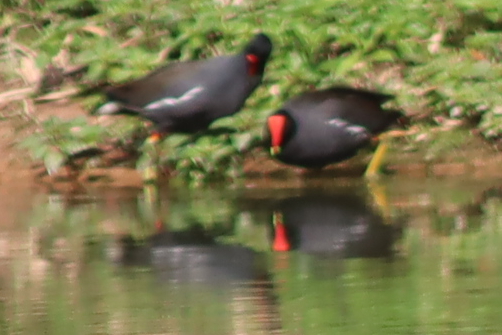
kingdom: Animalia
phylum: Chordata
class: Aves
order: Gruiformes
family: Rallidae
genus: Gallinula
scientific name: Gallinula chloropus
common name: Common moorhen
